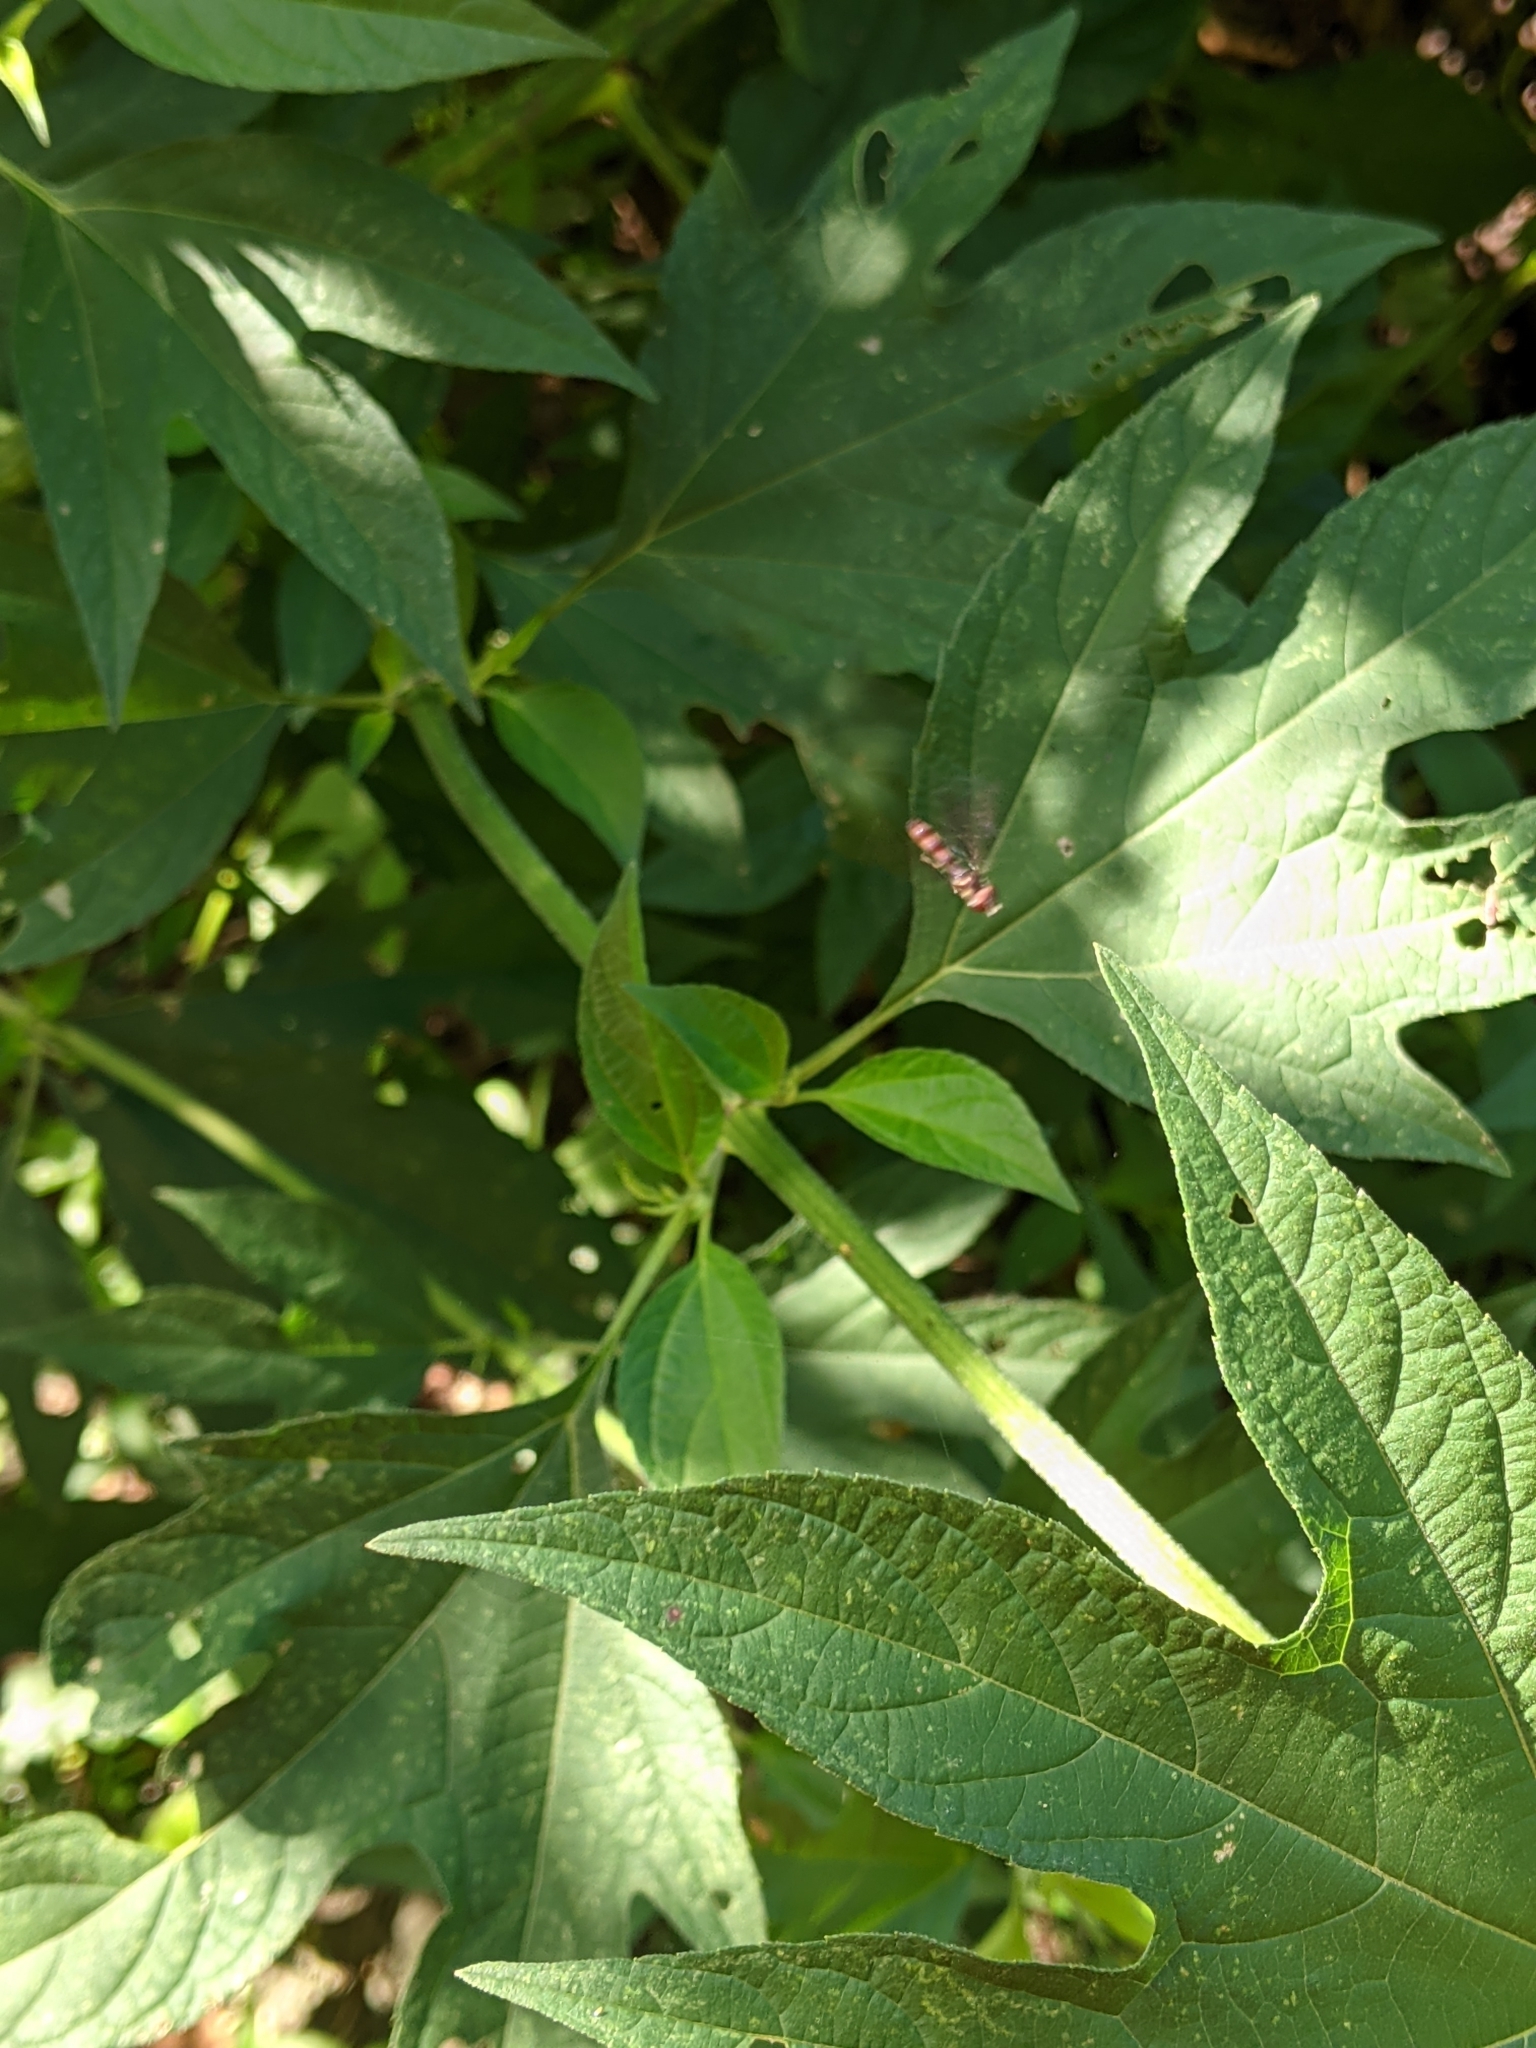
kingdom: Animalia
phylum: Arthropoda
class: Insecta
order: Diptera
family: Syrphidae
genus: Ocyptamus
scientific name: Ocyptamus fuscipennis
